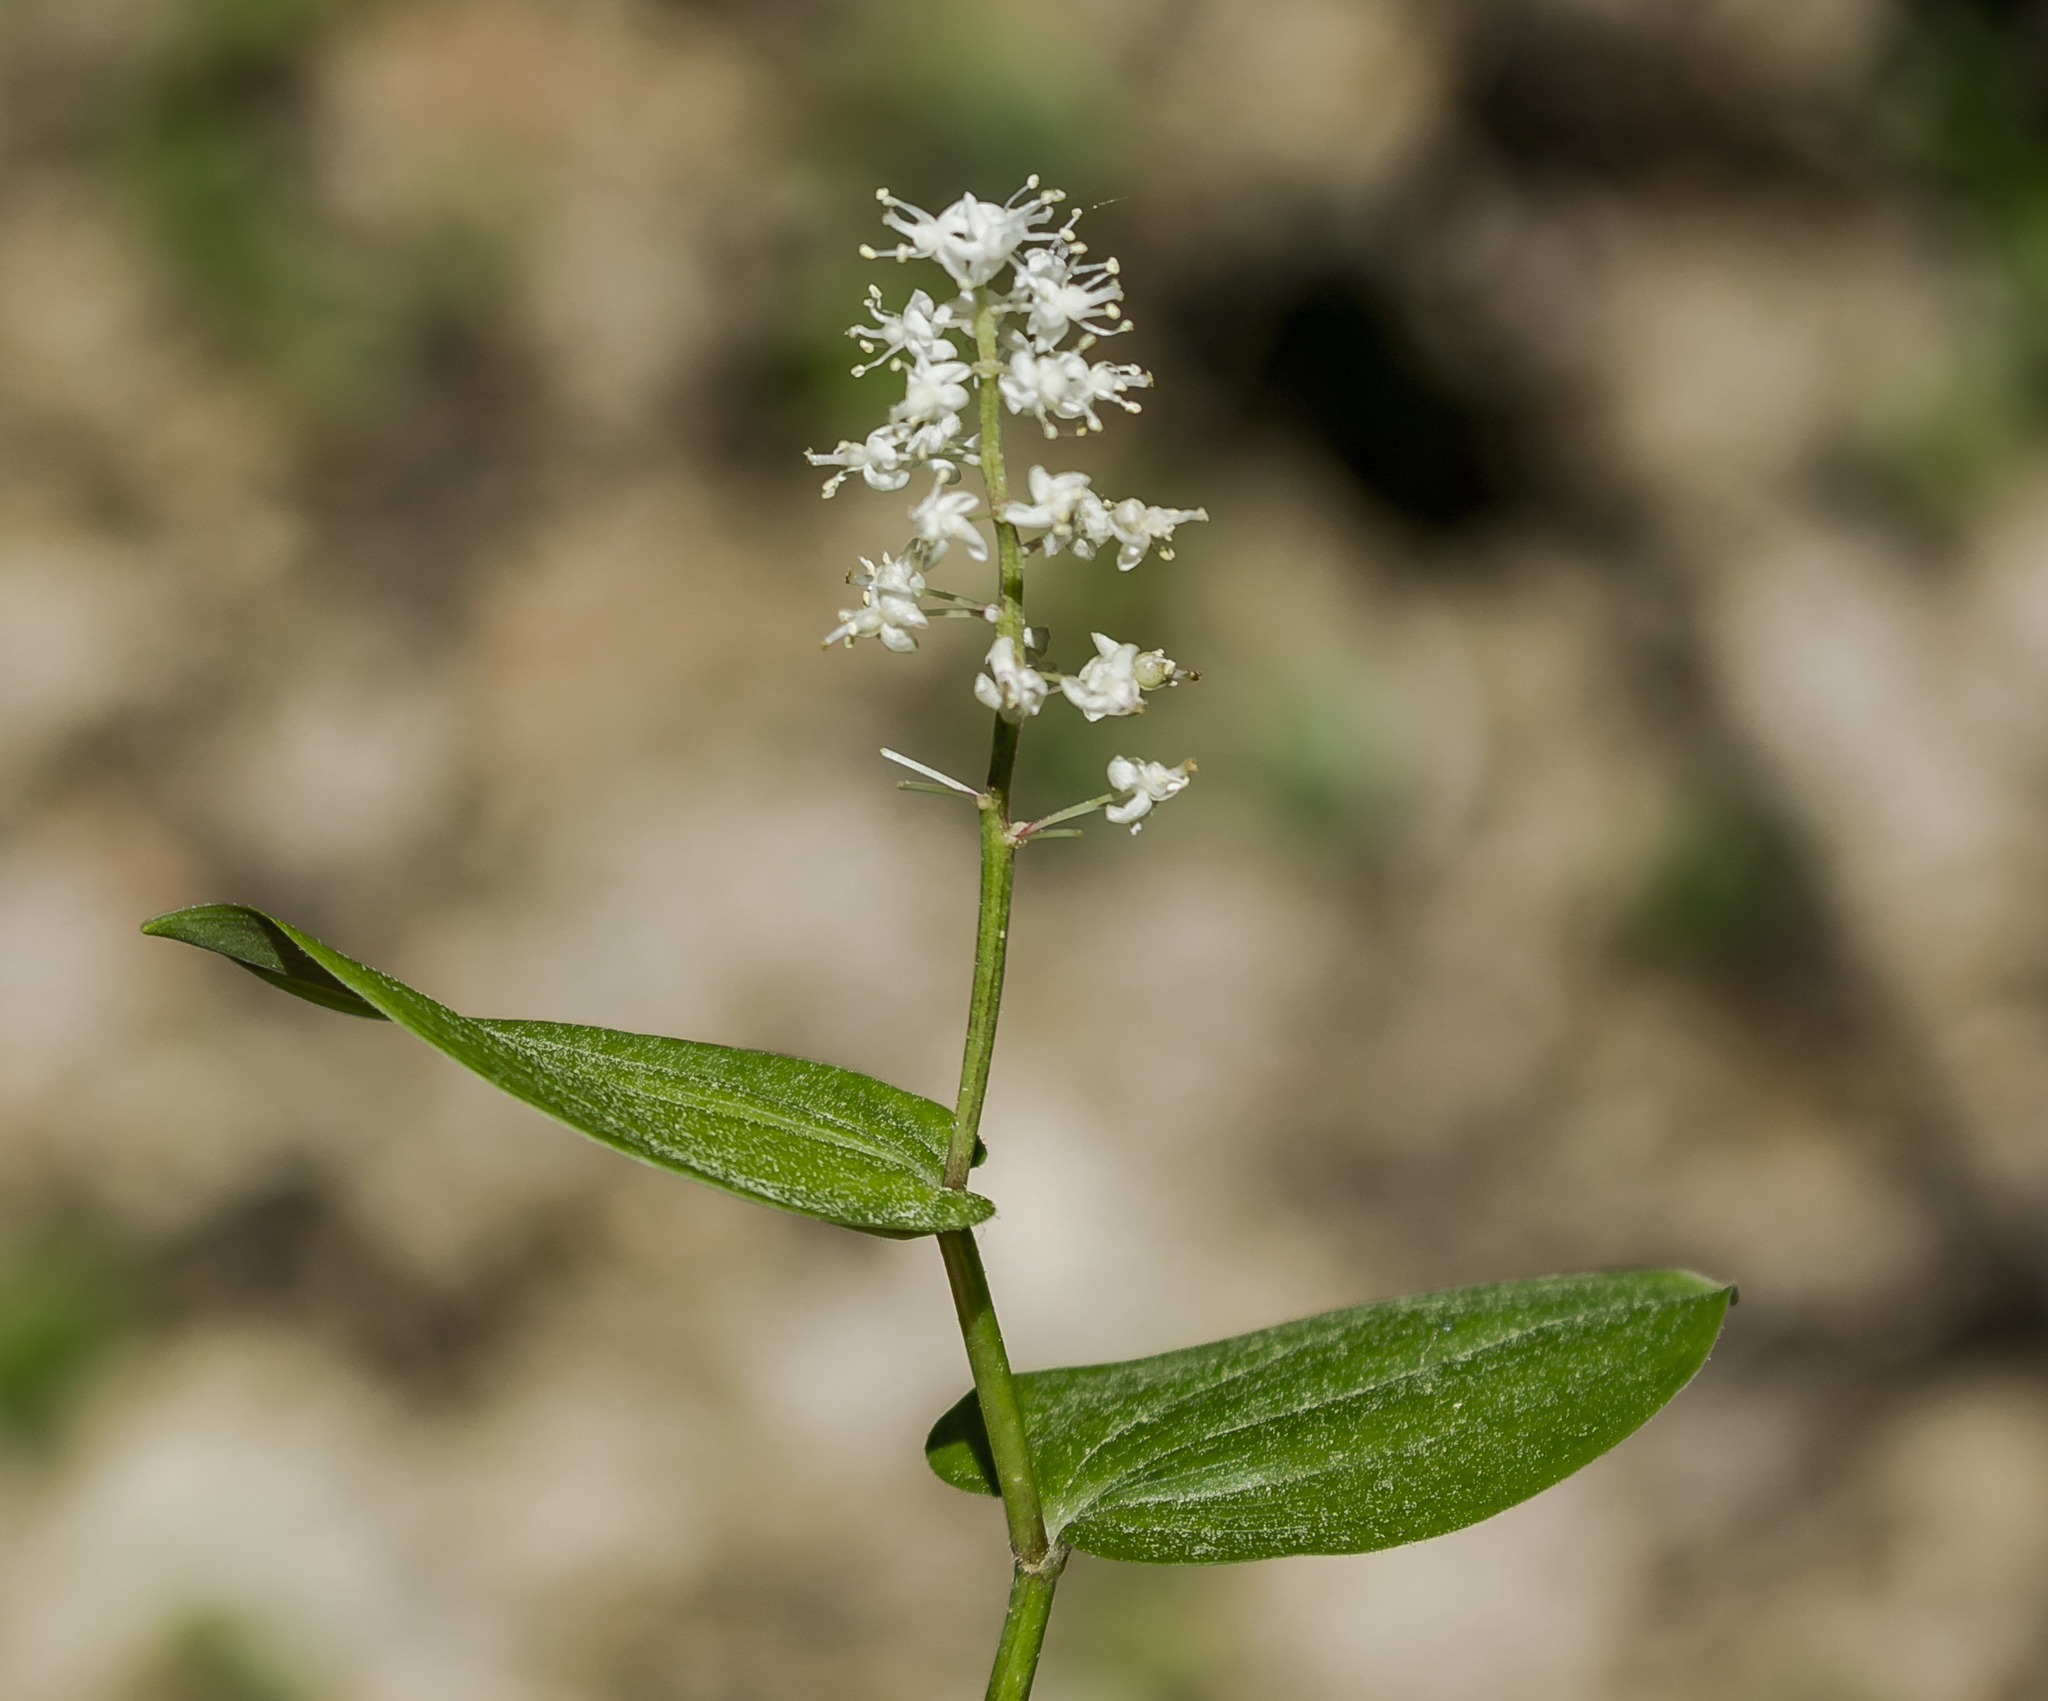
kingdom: Plantae
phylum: Tracheophyta
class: Liliopsida
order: Asparagales
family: Asparagaceae
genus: Maianthemum
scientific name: Maianthemum canadense
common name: False lily-of-the-valley
